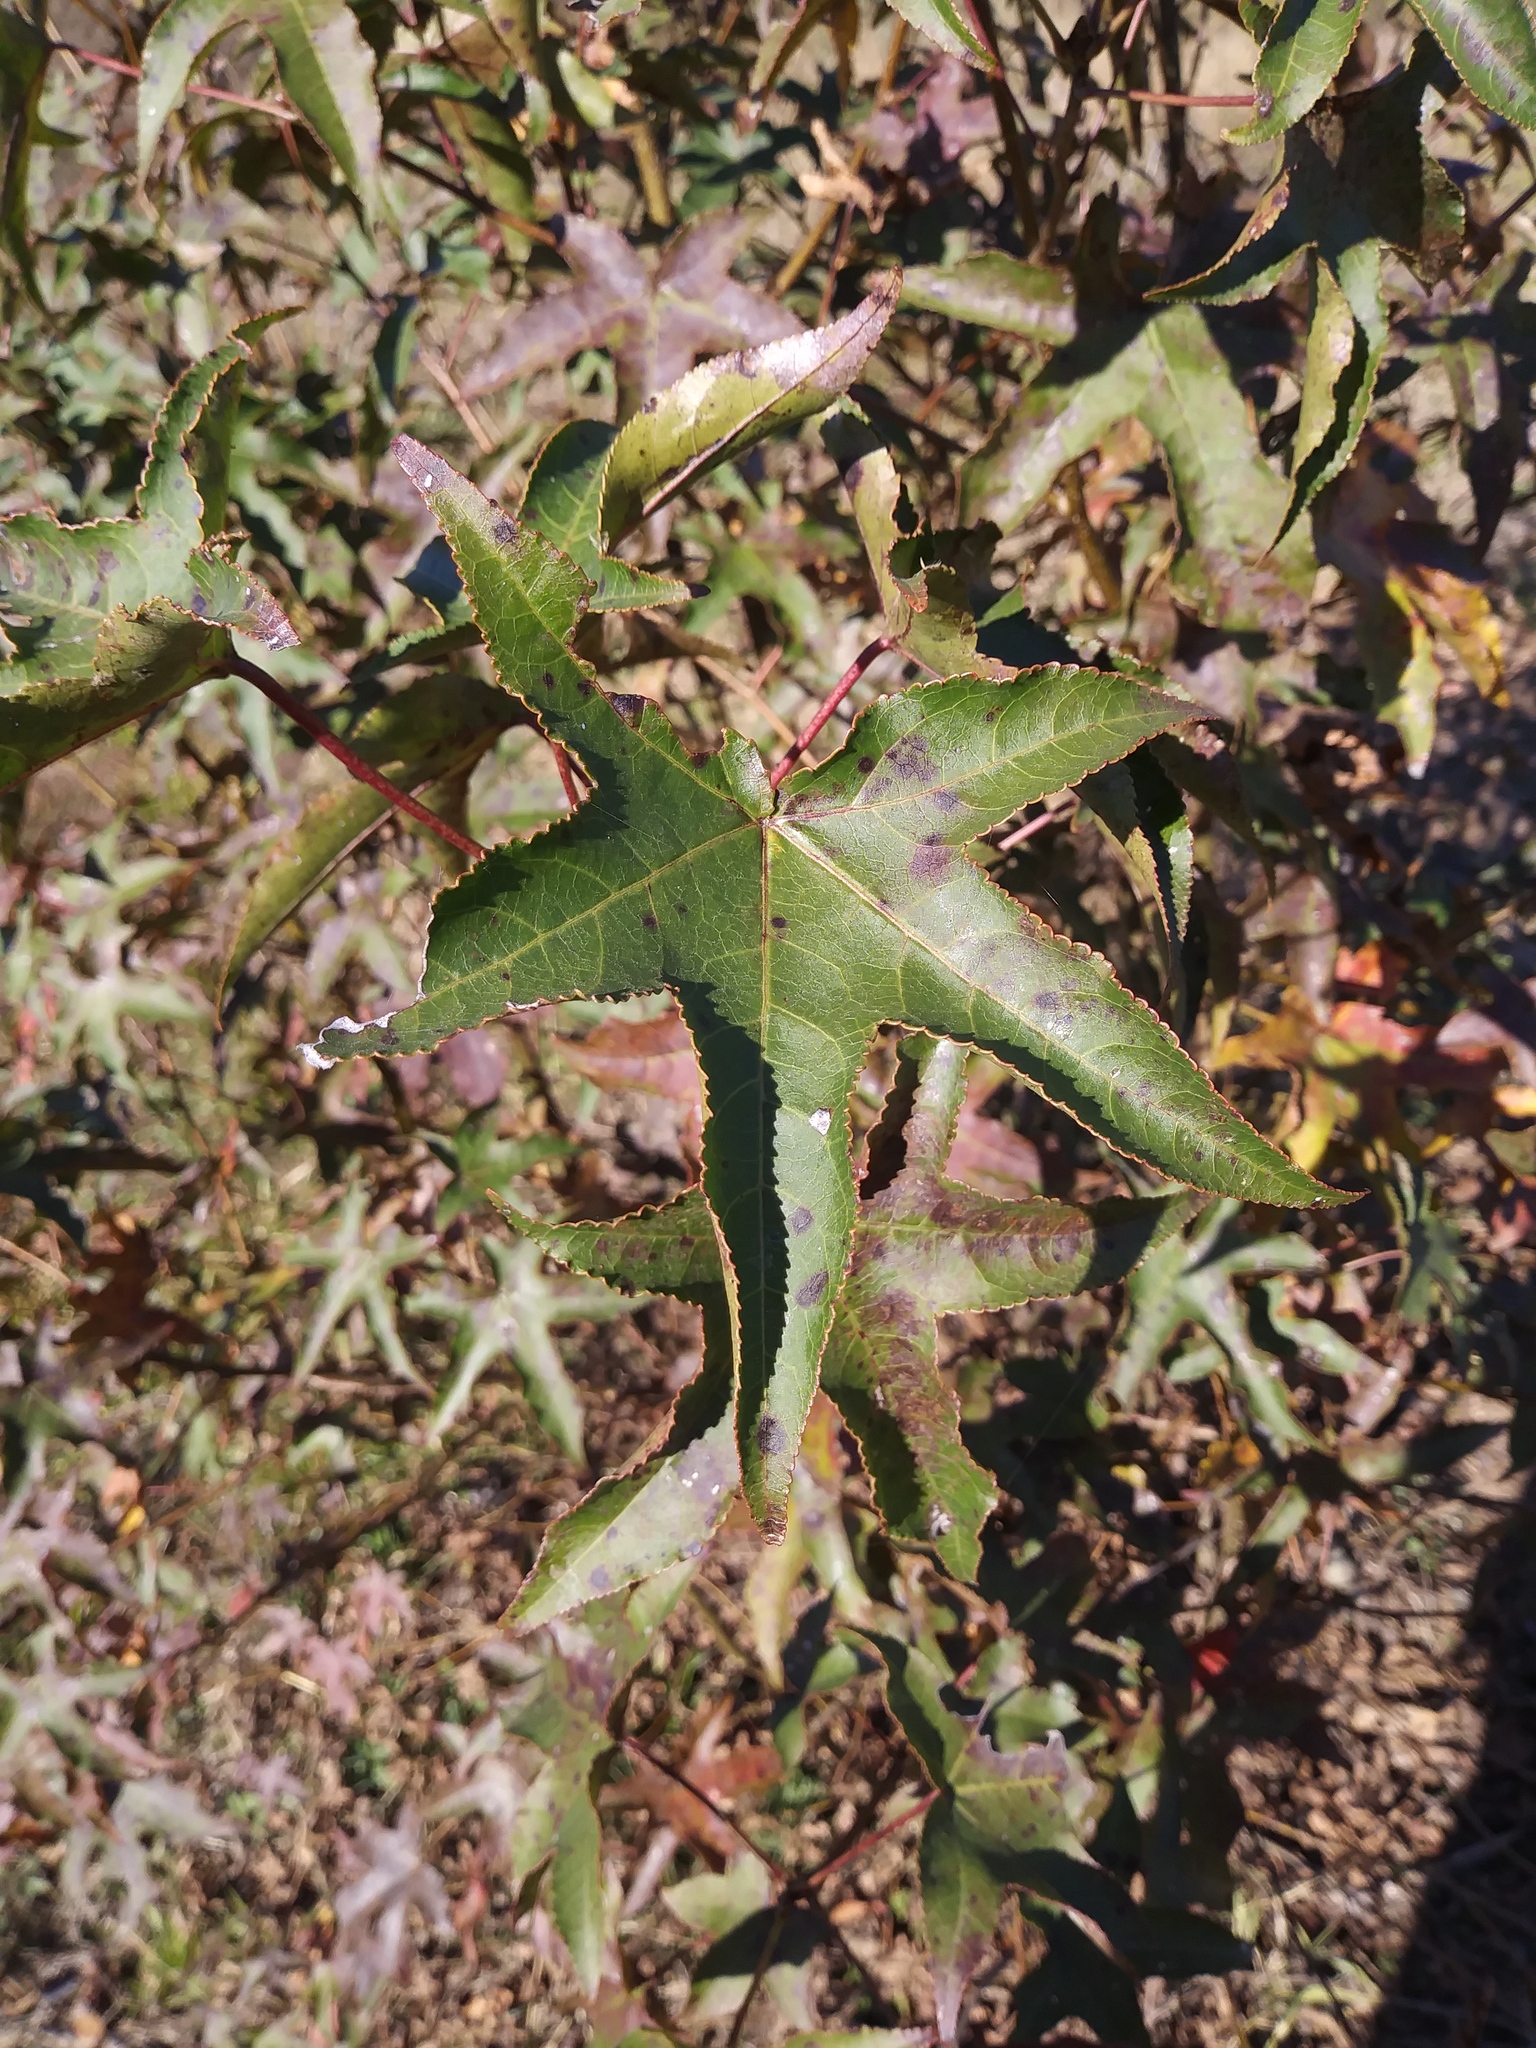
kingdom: Plantae
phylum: Tracheophyta
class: Magnoliopsida
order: Saxifragales
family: Altingiaceae
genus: Liquidambar
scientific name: Liquidambar styraciflua
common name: Sweet gum
